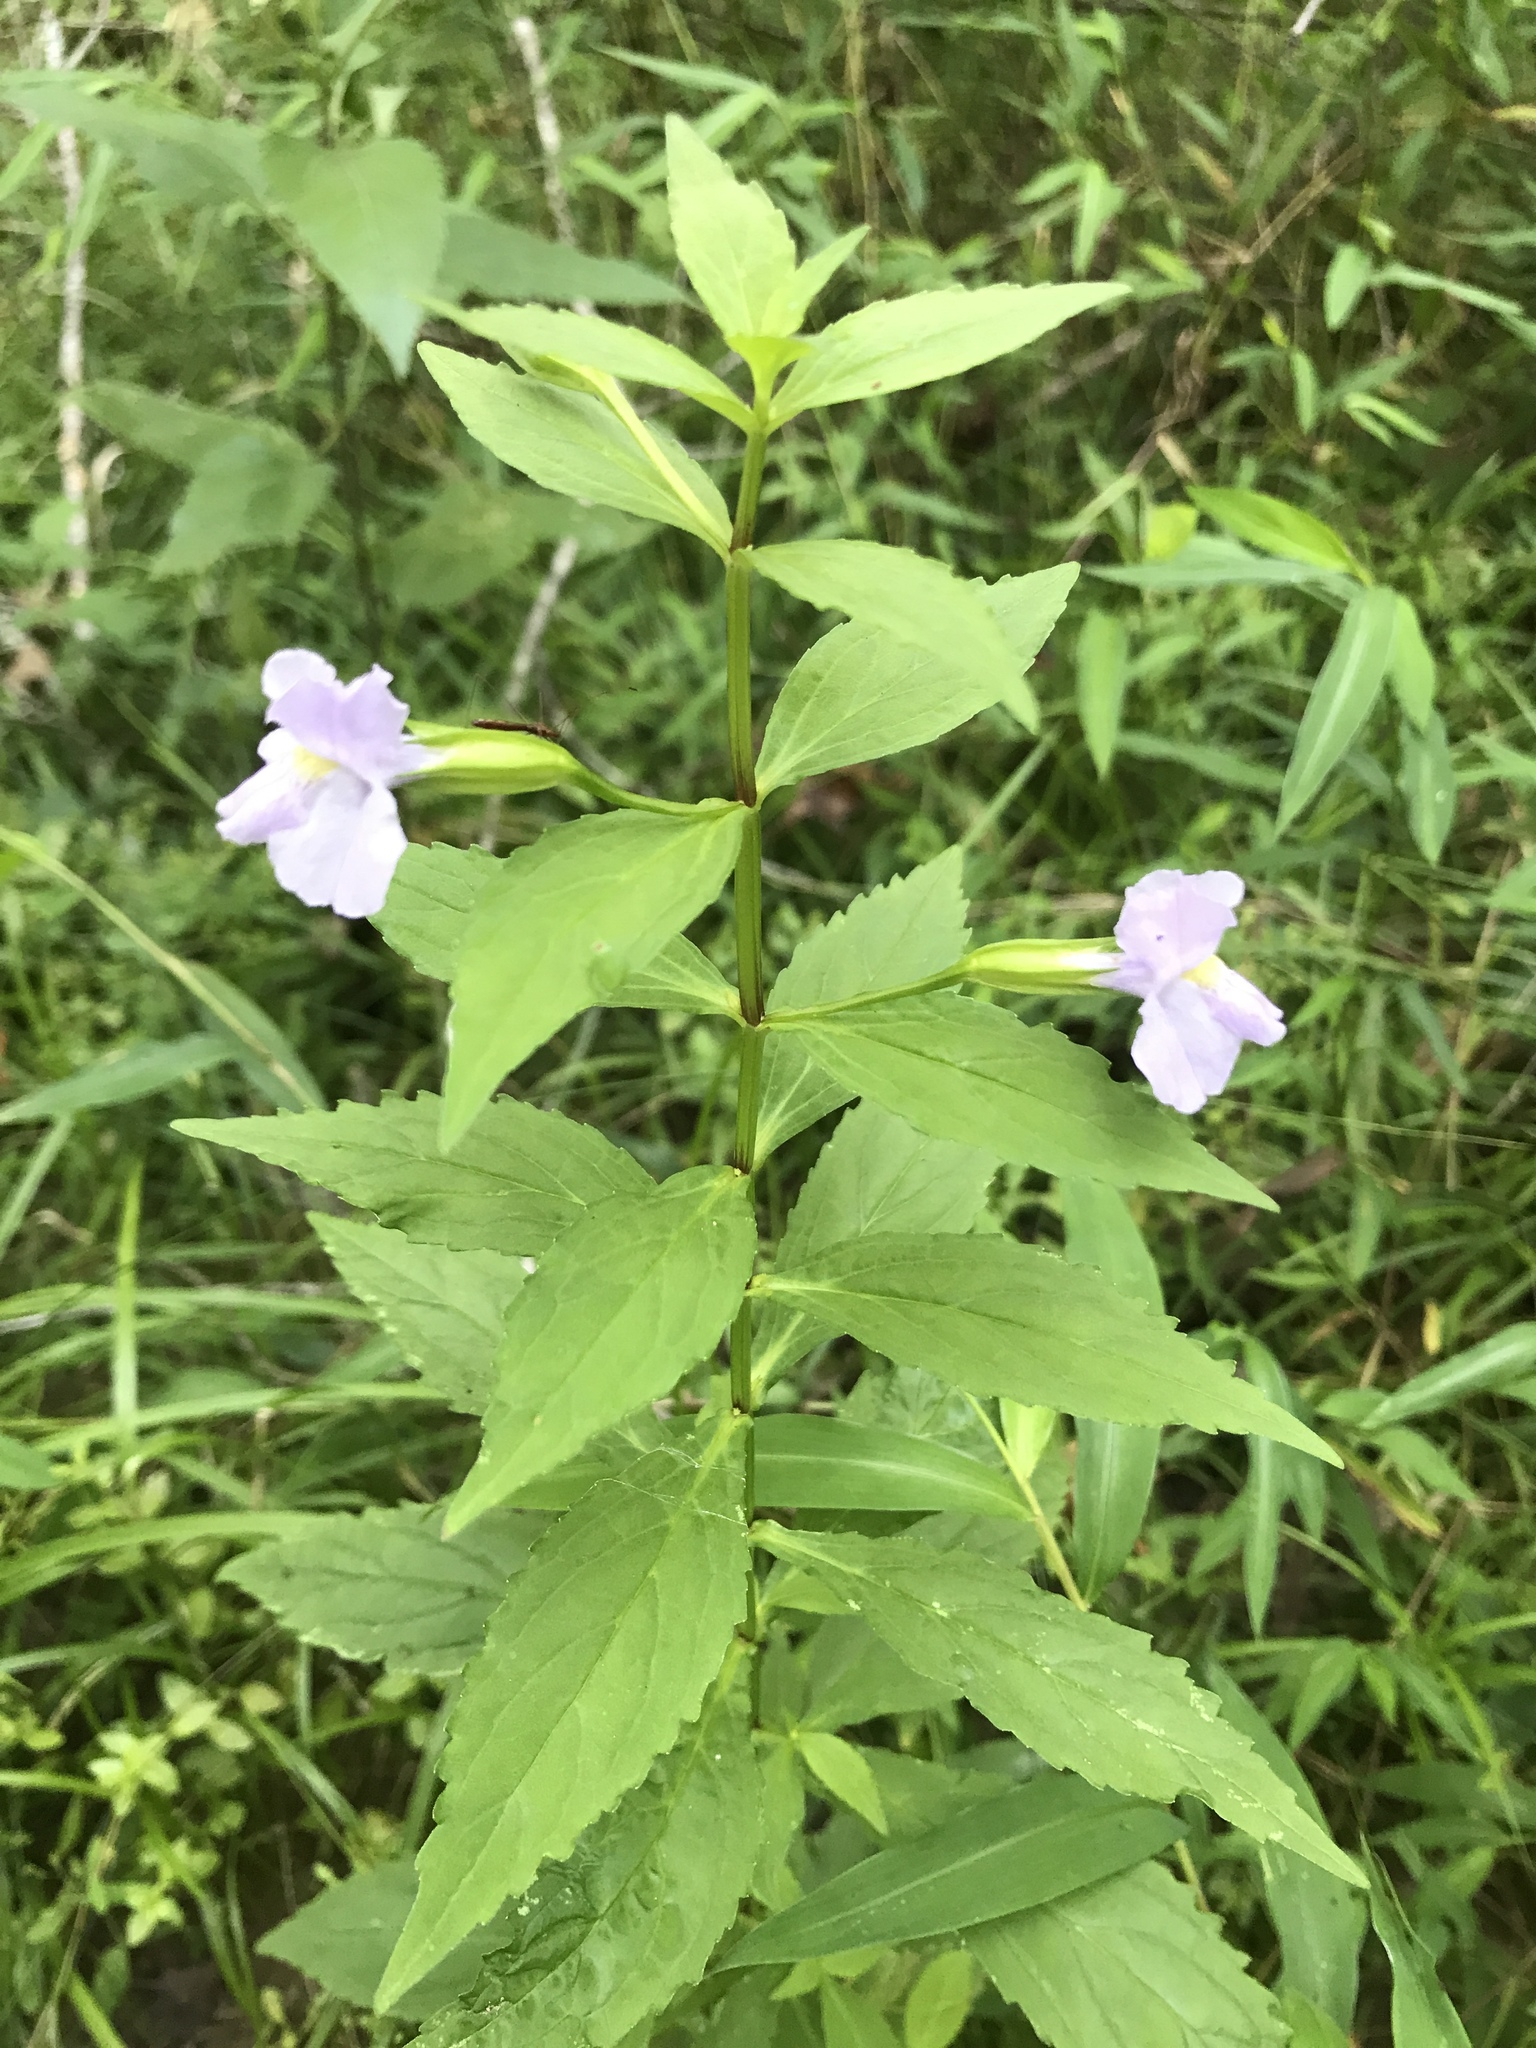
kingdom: Plantae
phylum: Tracheophyta
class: Magnoliopsida
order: Lamiales
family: Phrymaceae
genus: Mimulus
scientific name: Mimulus ringens
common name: Allegheny monkeyflower
